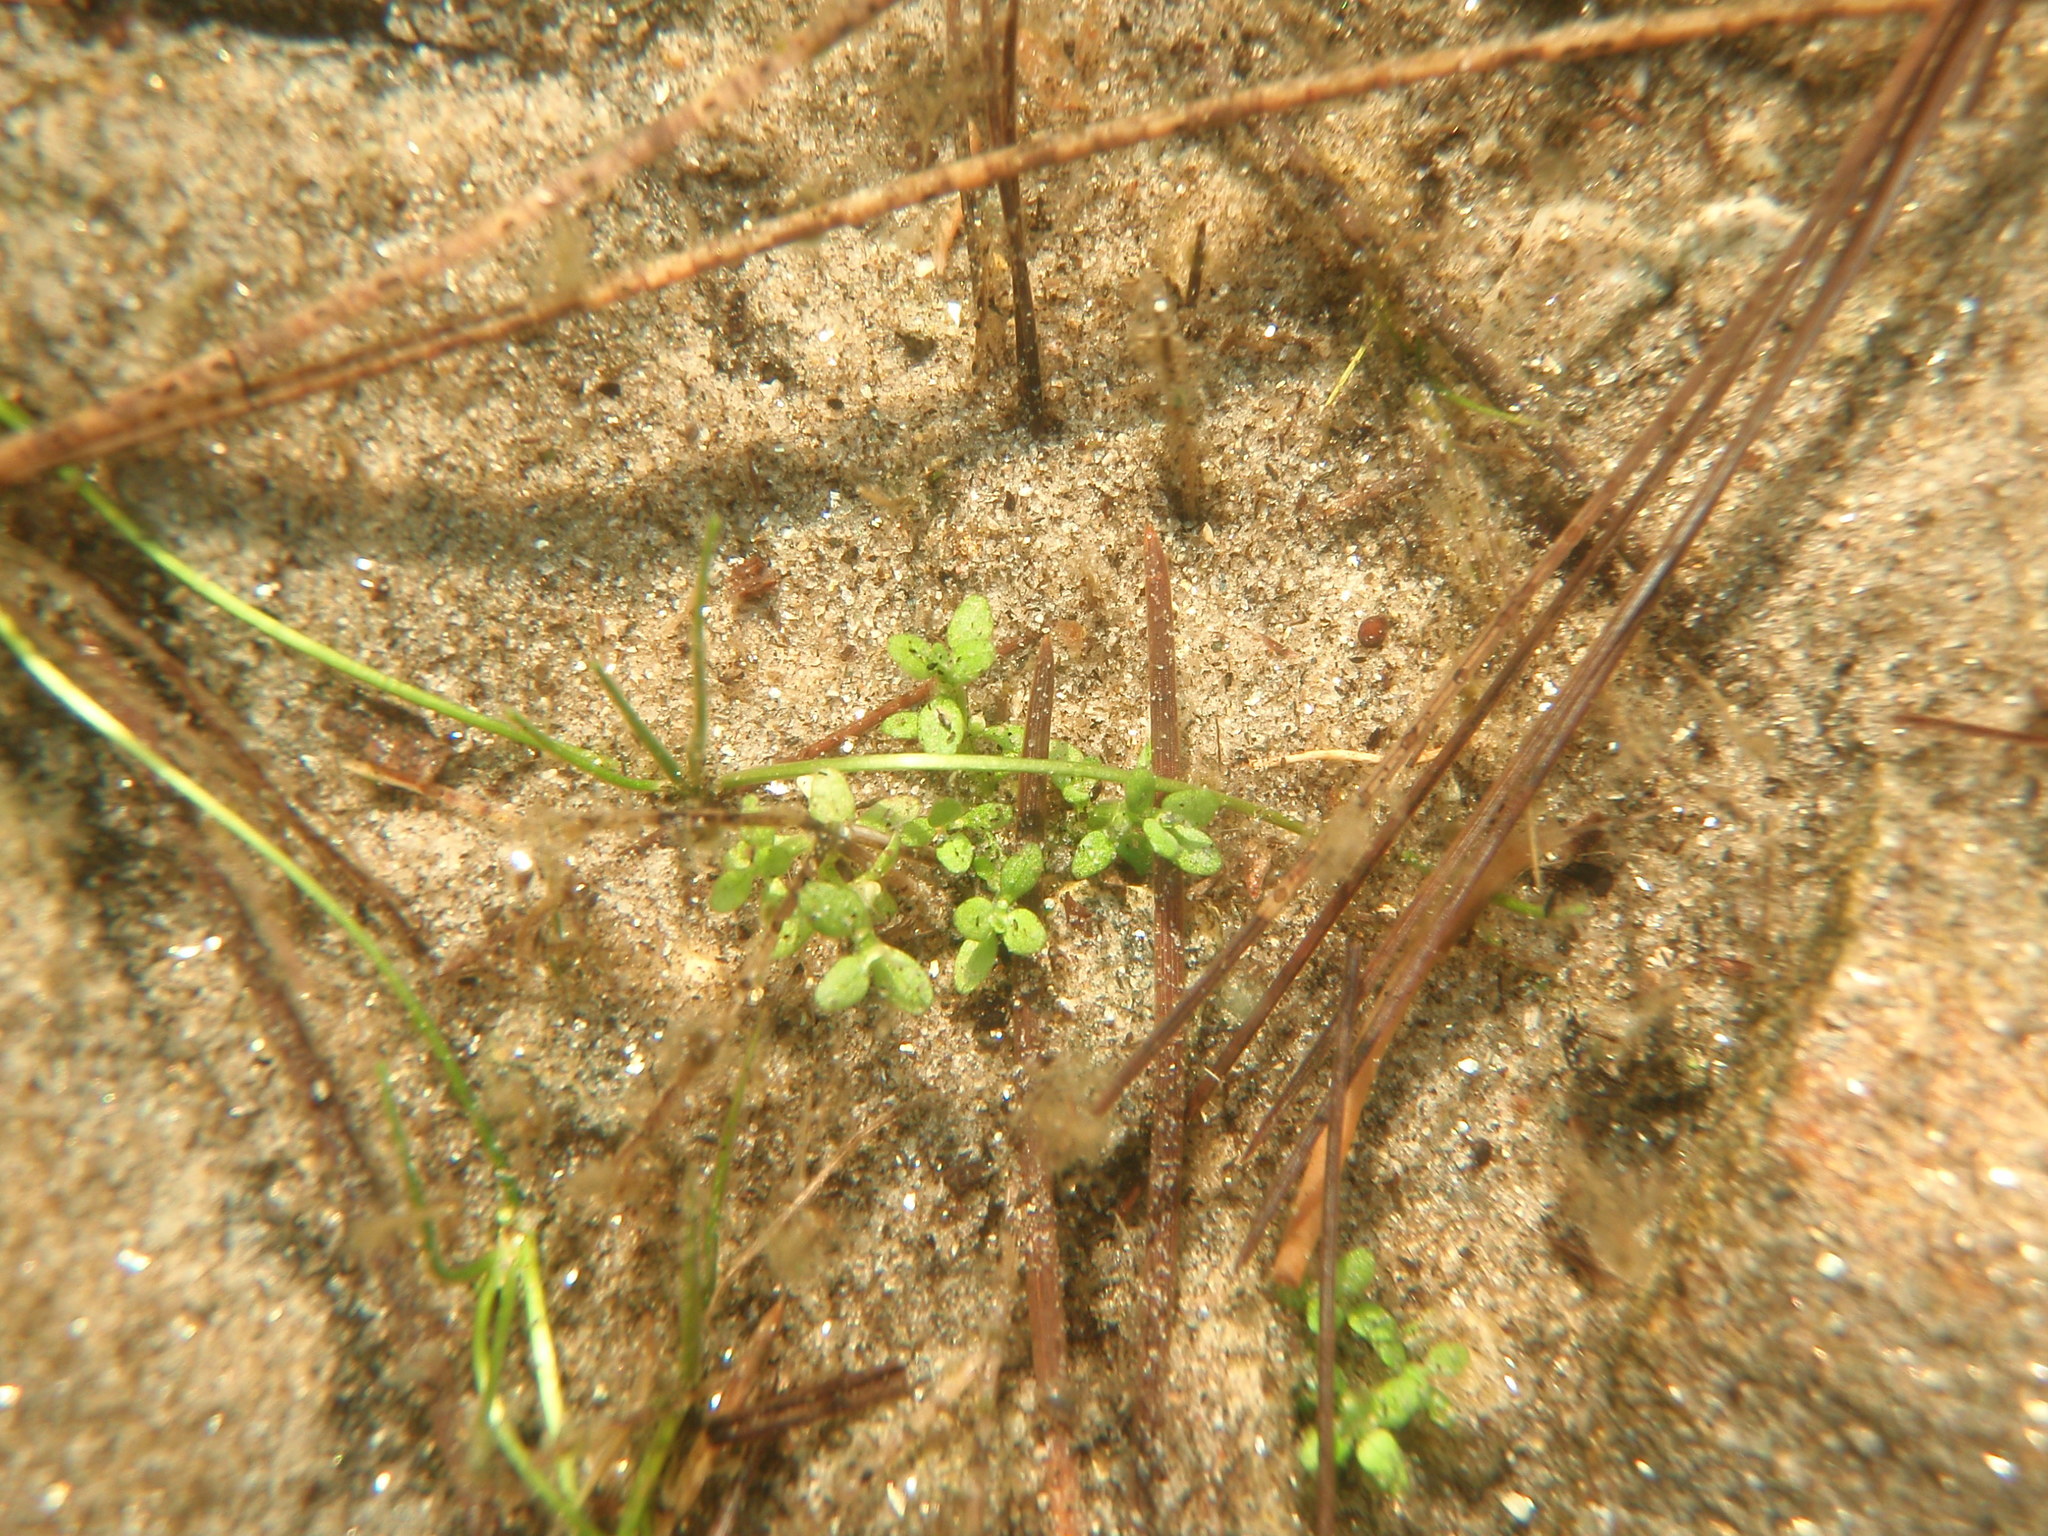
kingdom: Plantae
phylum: Tracheophyta
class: Magnoliopsida
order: Malpighiales
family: Elatinaceae
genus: Elatine
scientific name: Elatine minima
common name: Small waterwort
